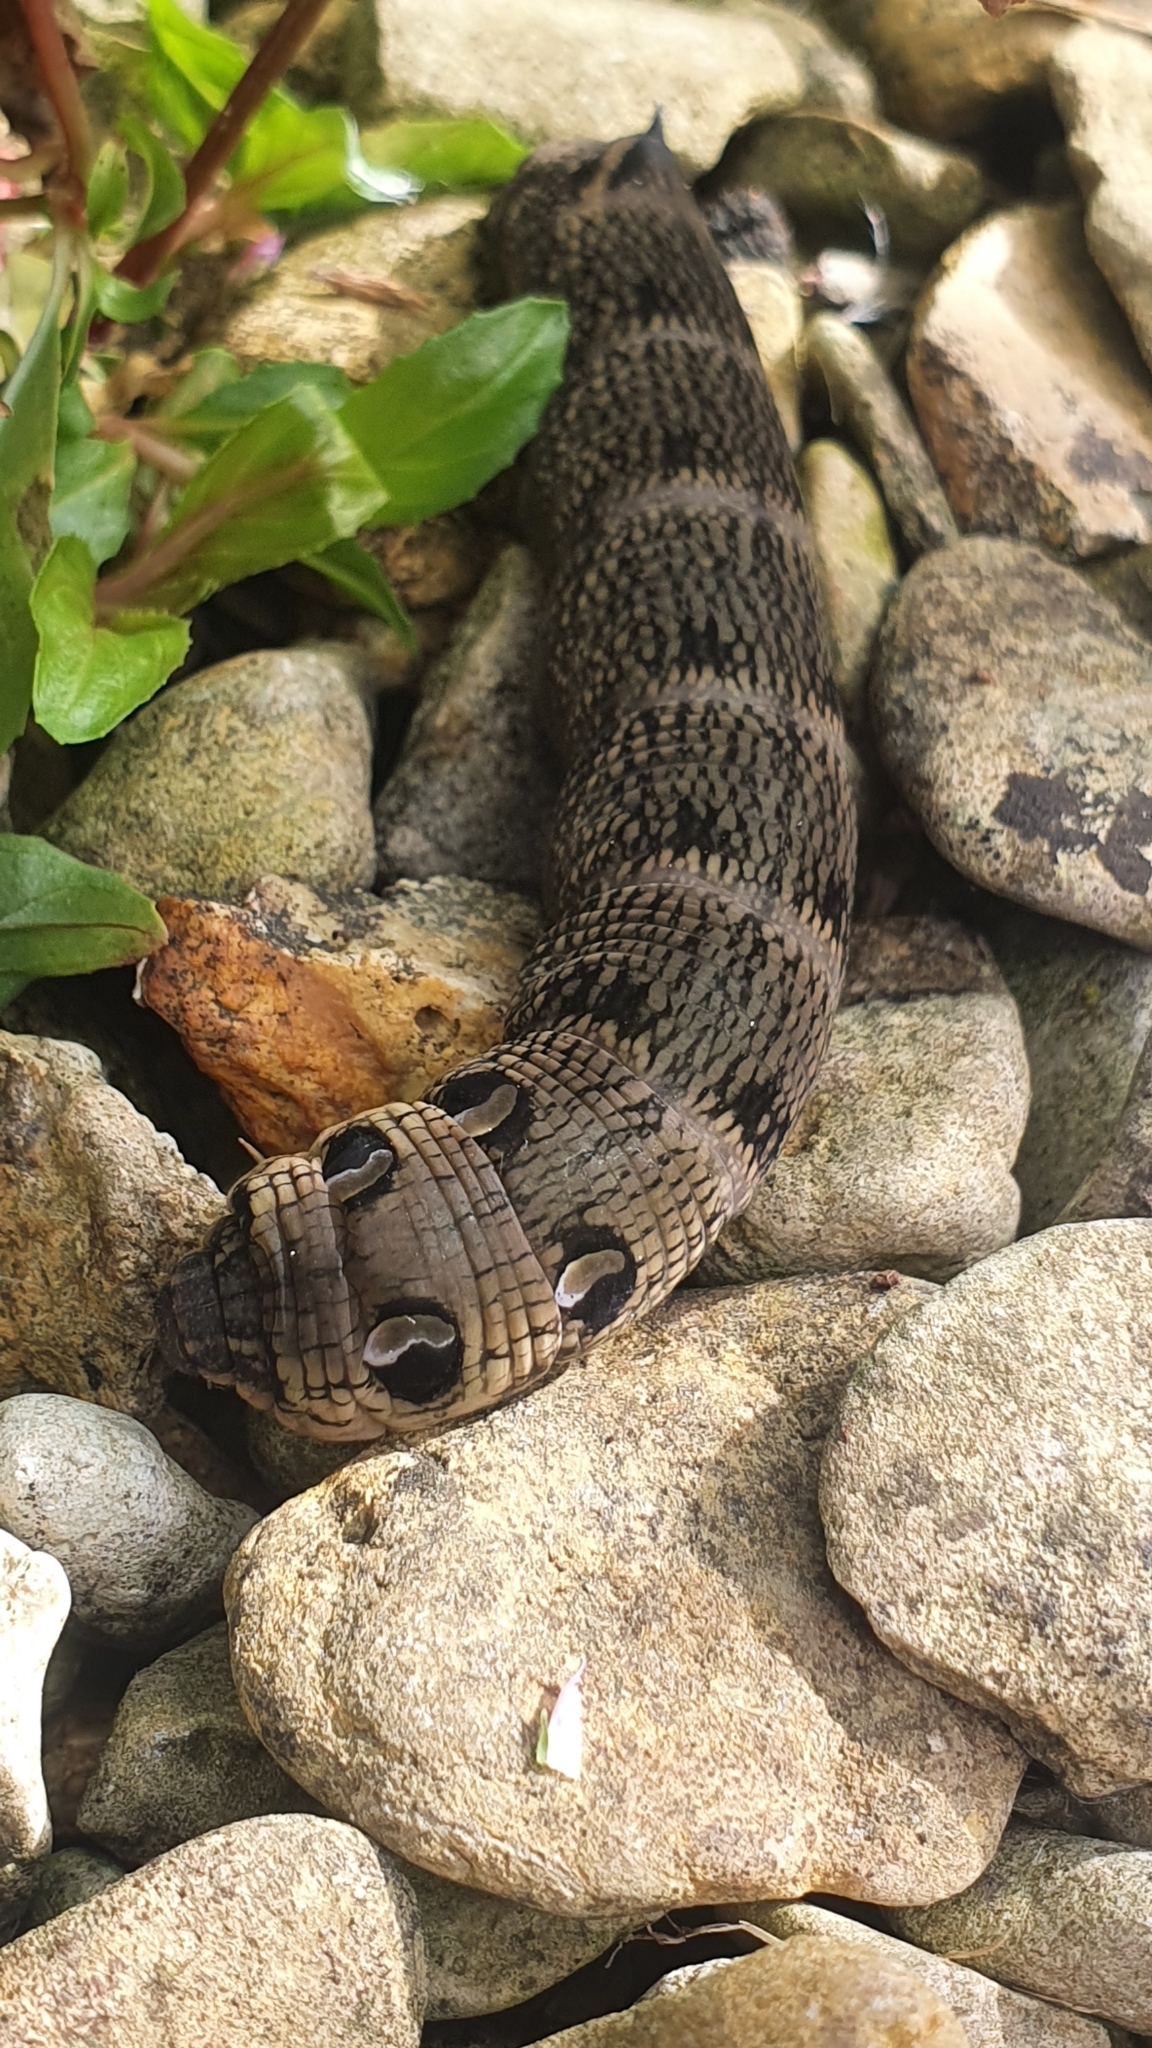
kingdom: Animalia
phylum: Arthropoda
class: Insecta
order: Lepidoptera
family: Sphingidae
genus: Deilephila
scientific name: Deilephila elpenor
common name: Elephant hawk-moth
